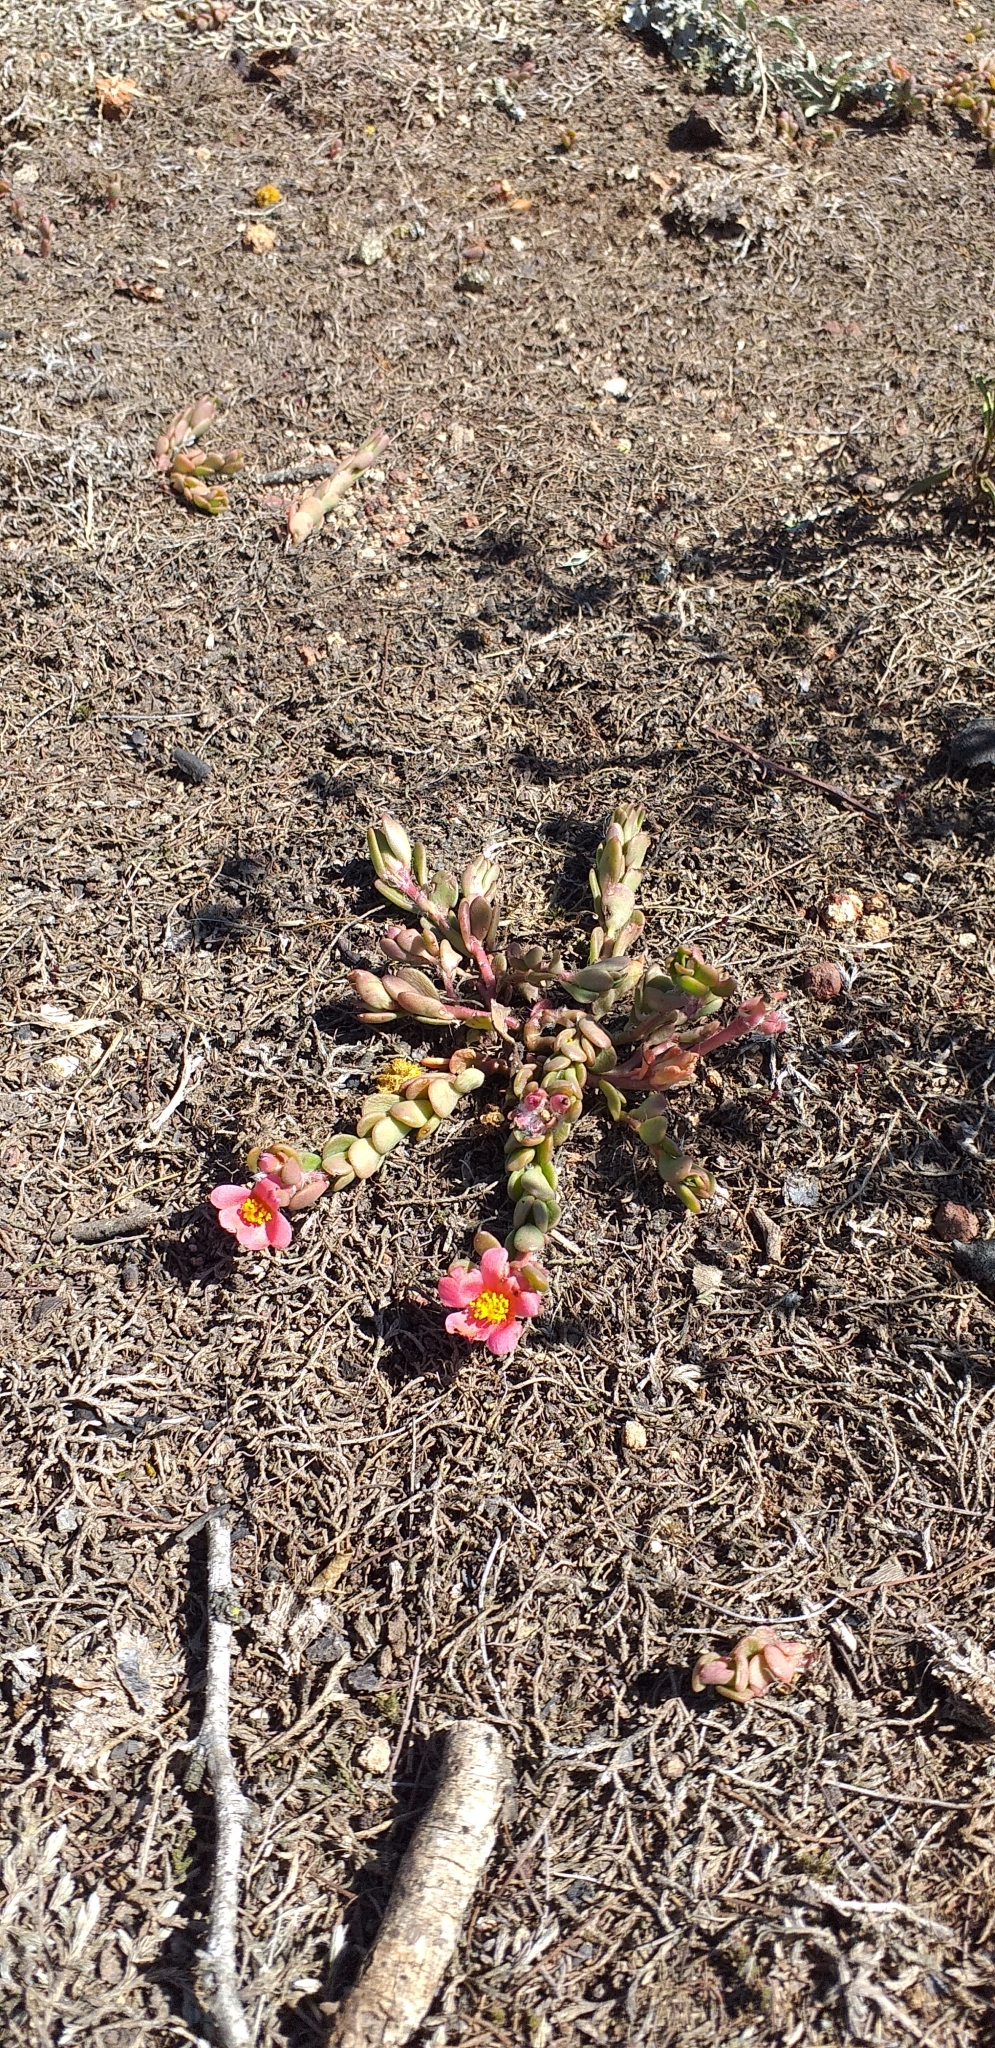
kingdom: Plantae
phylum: Tracheophyta
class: Magnoliopsida
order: Caryophyllales
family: Portulacaceae
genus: Portulaca
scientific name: Portulaca cryptopetala
